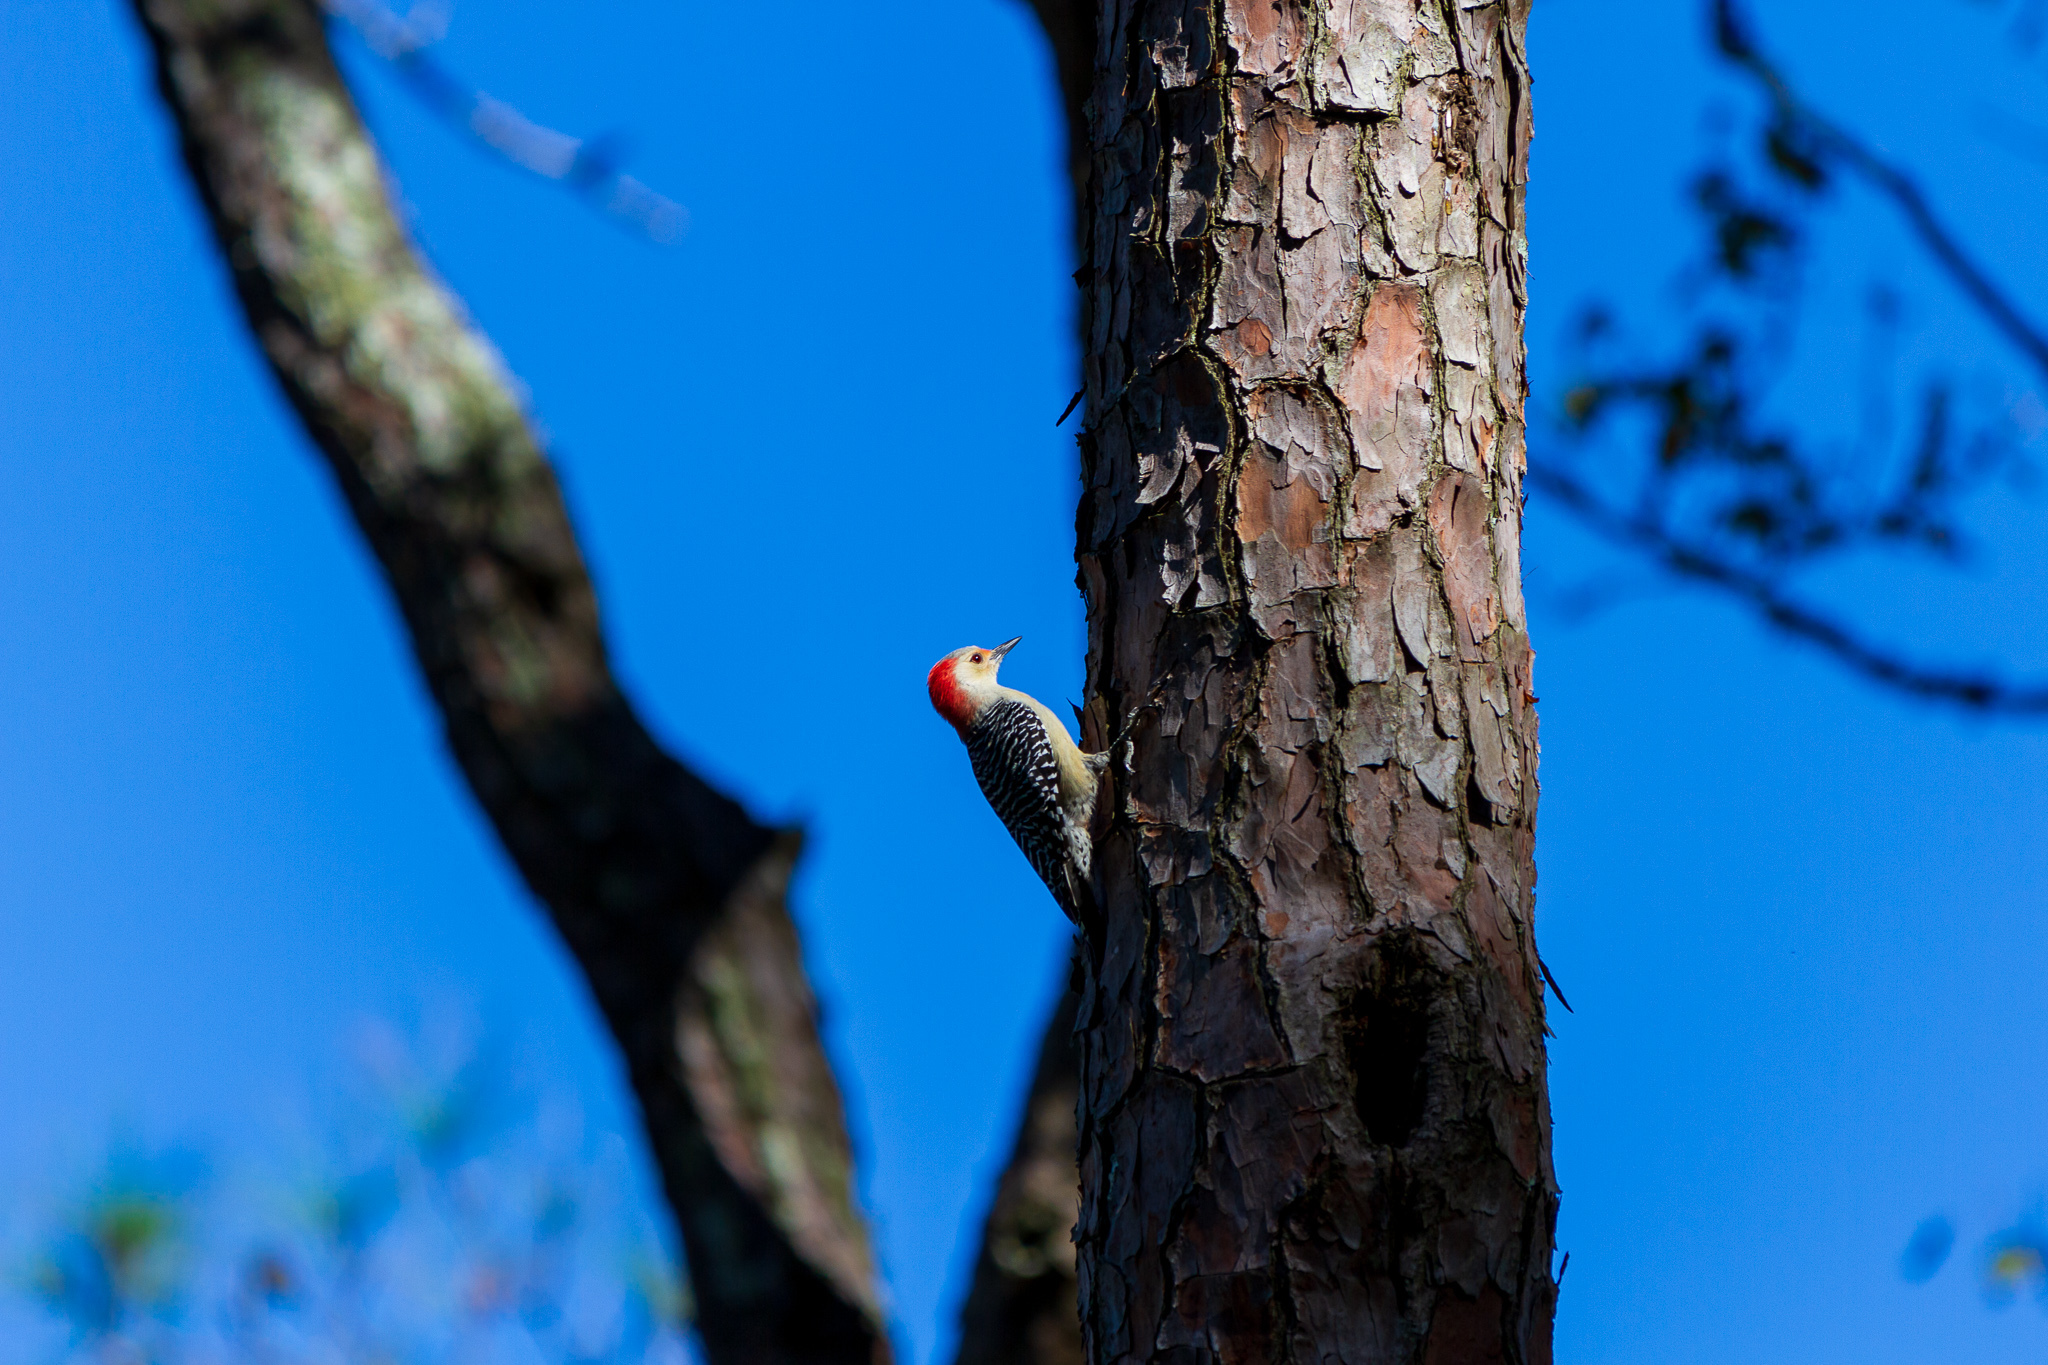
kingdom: Animalia
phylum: Chordata
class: Aves
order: Piciformes
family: Picidae
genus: Melanerpes
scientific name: Melanerpes carolinus
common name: Red-bellied woodpecker
